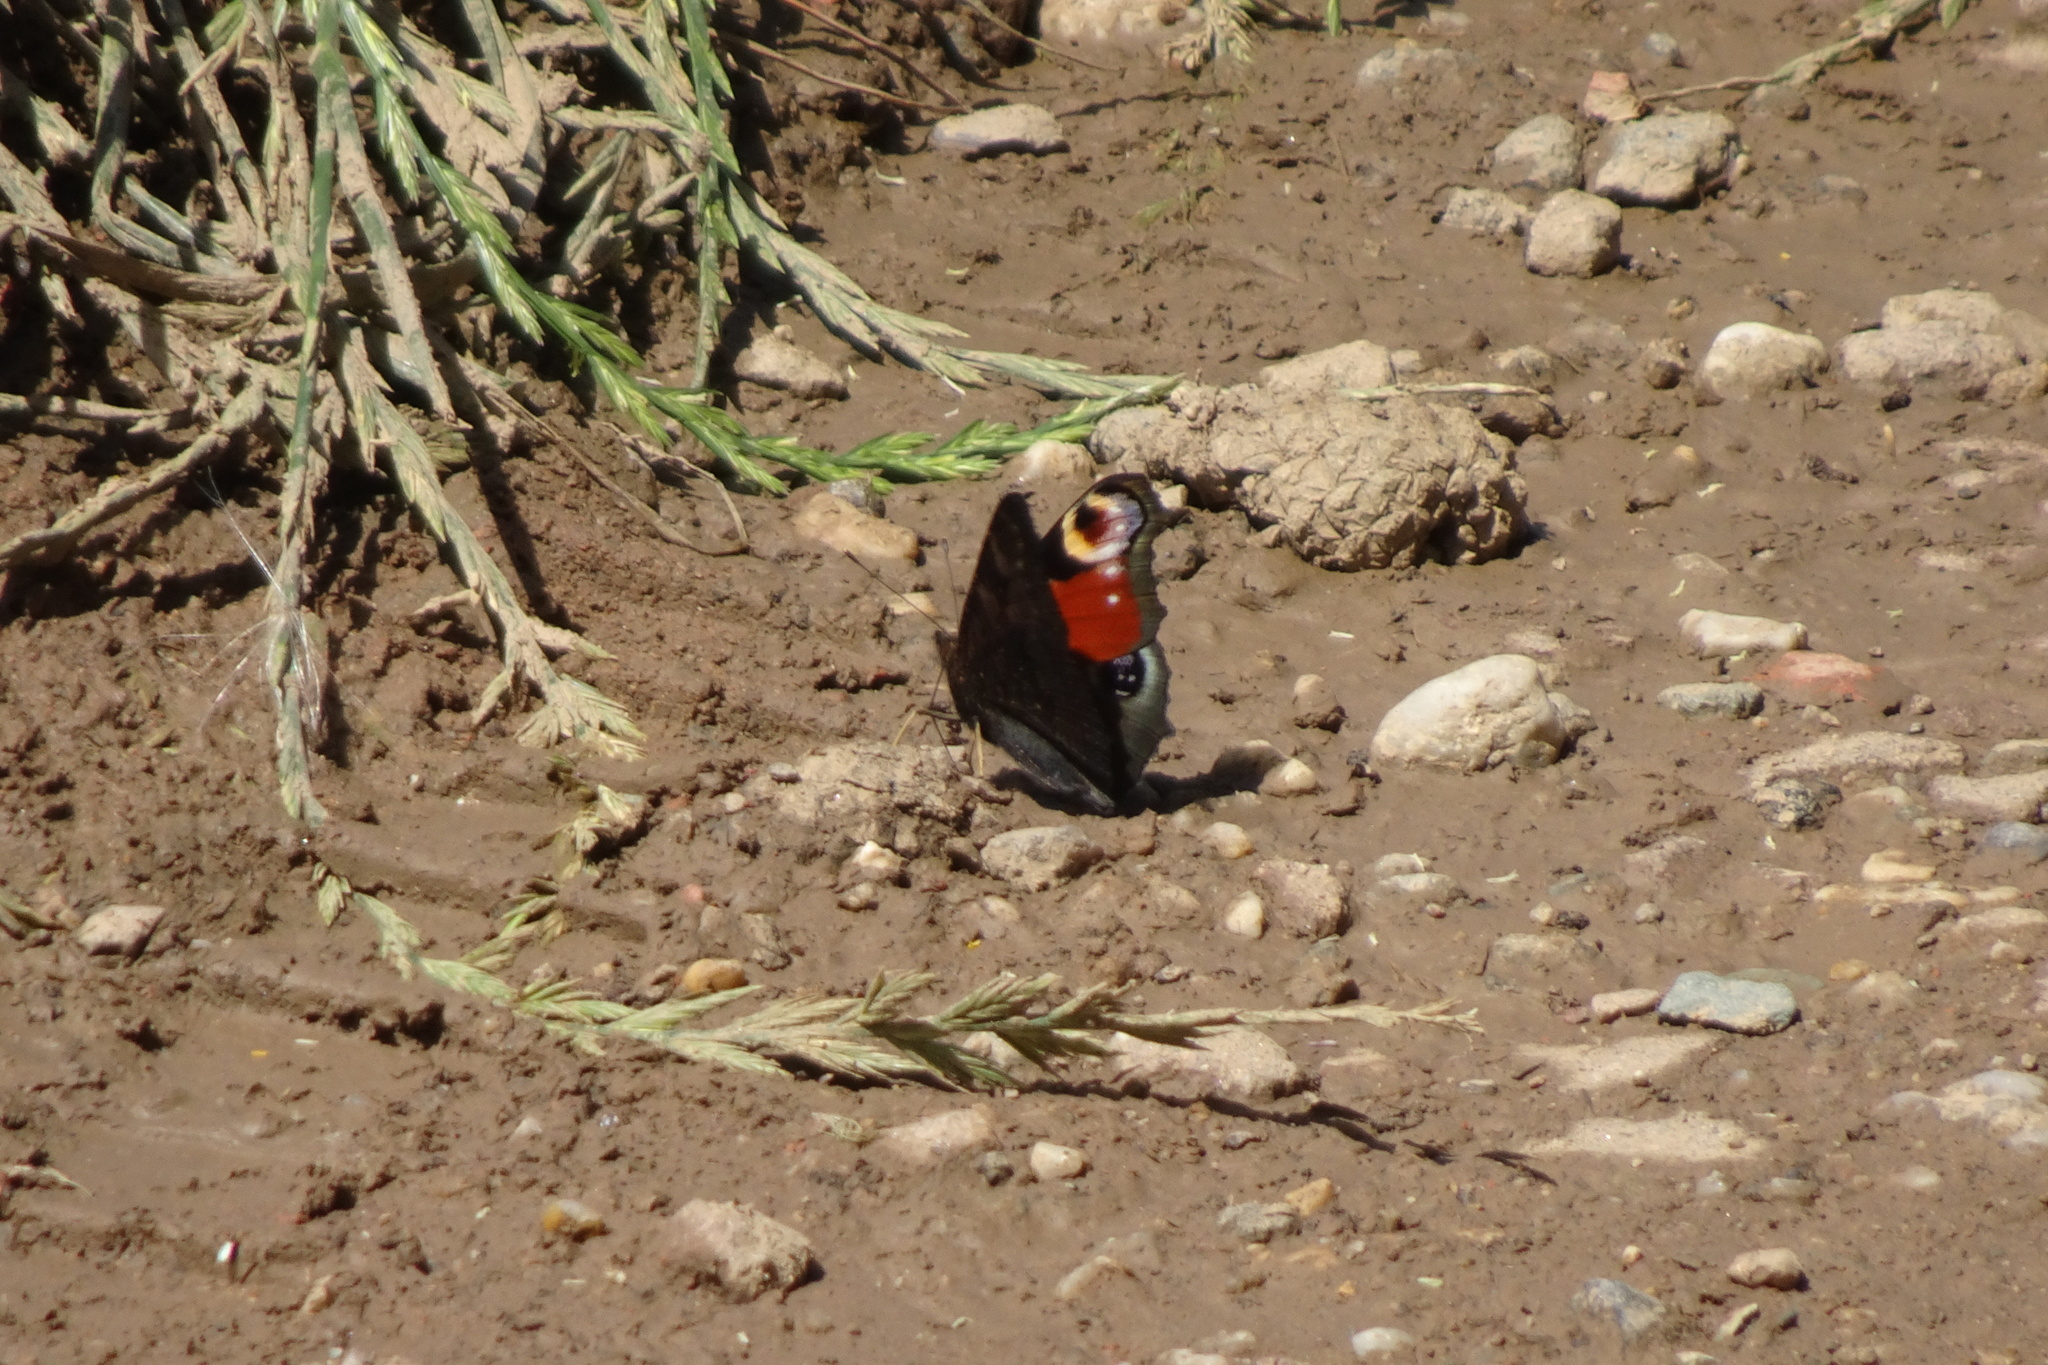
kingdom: Animalia
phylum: Arthropoda
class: Insecta
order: Lepidoptera
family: Nymphalidae
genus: Aglais
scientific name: Aglais io
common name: Peacock
